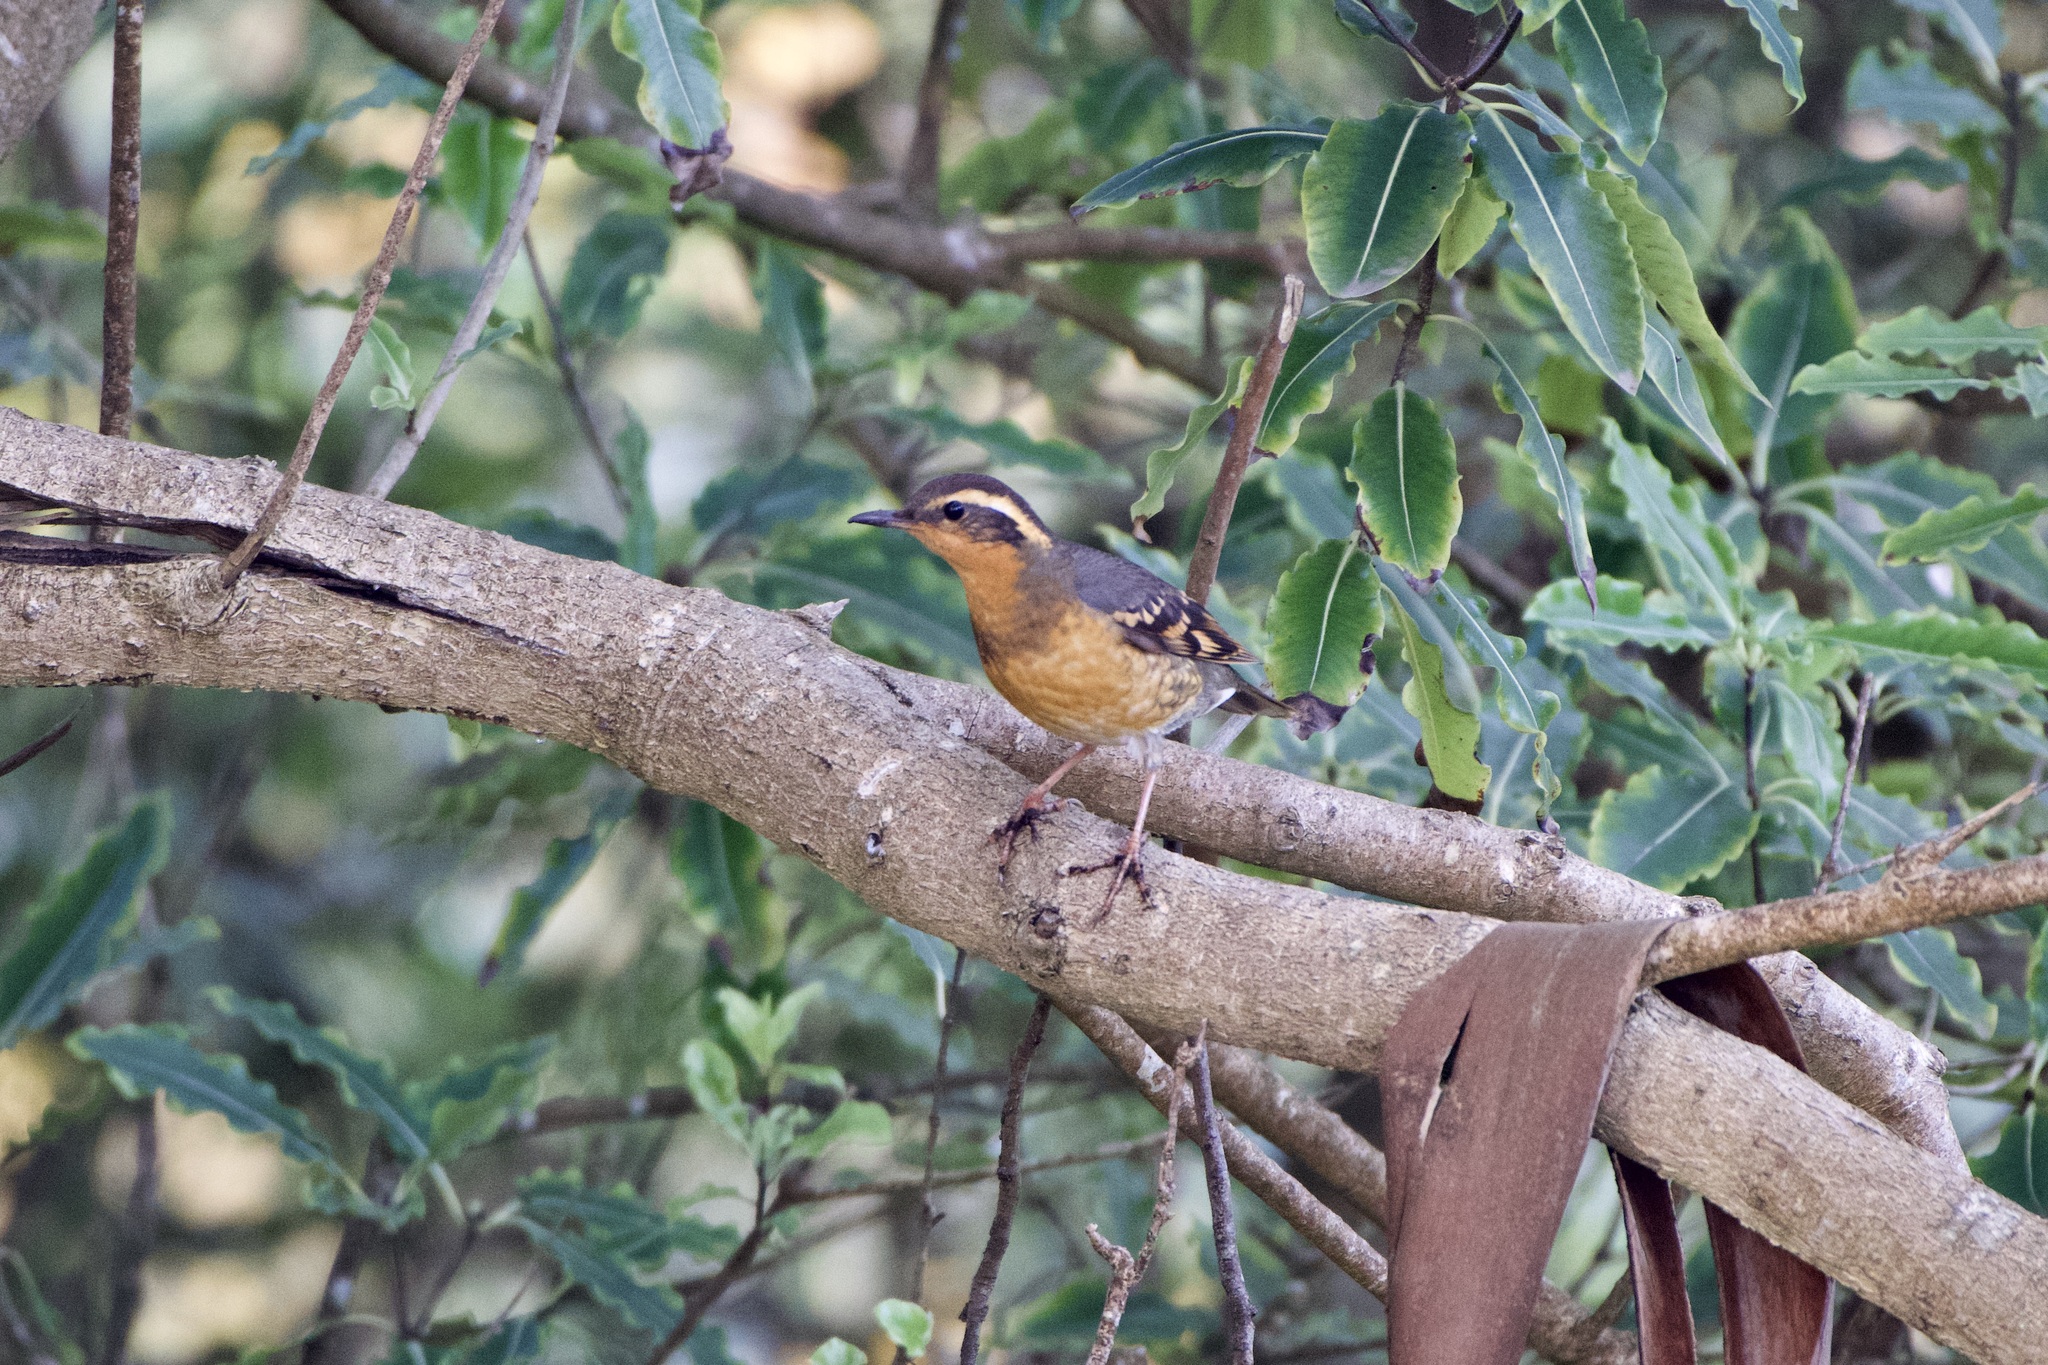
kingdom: Animalia
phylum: Chordata
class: Aves
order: Passeriformes
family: Turdidae
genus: Ixoreus
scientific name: Ixoreus naevius
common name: Varied thrush
